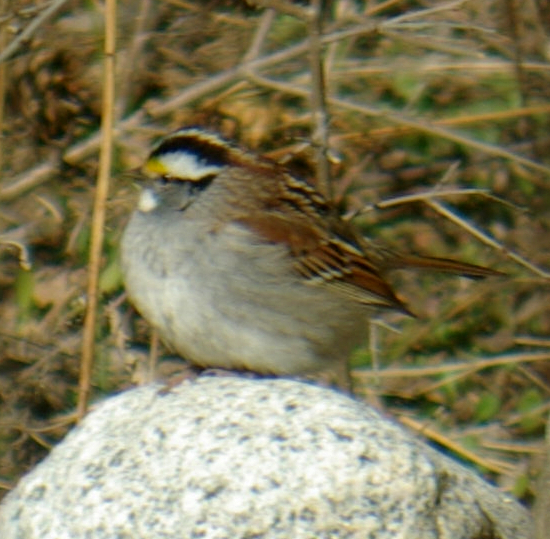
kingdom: Animalia
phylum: Chordata
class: Aves
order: Passeriformes
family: Passerellidae
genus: Zonotrichia
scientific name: Zonotrichia albicollis
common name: White-throated sparrow
